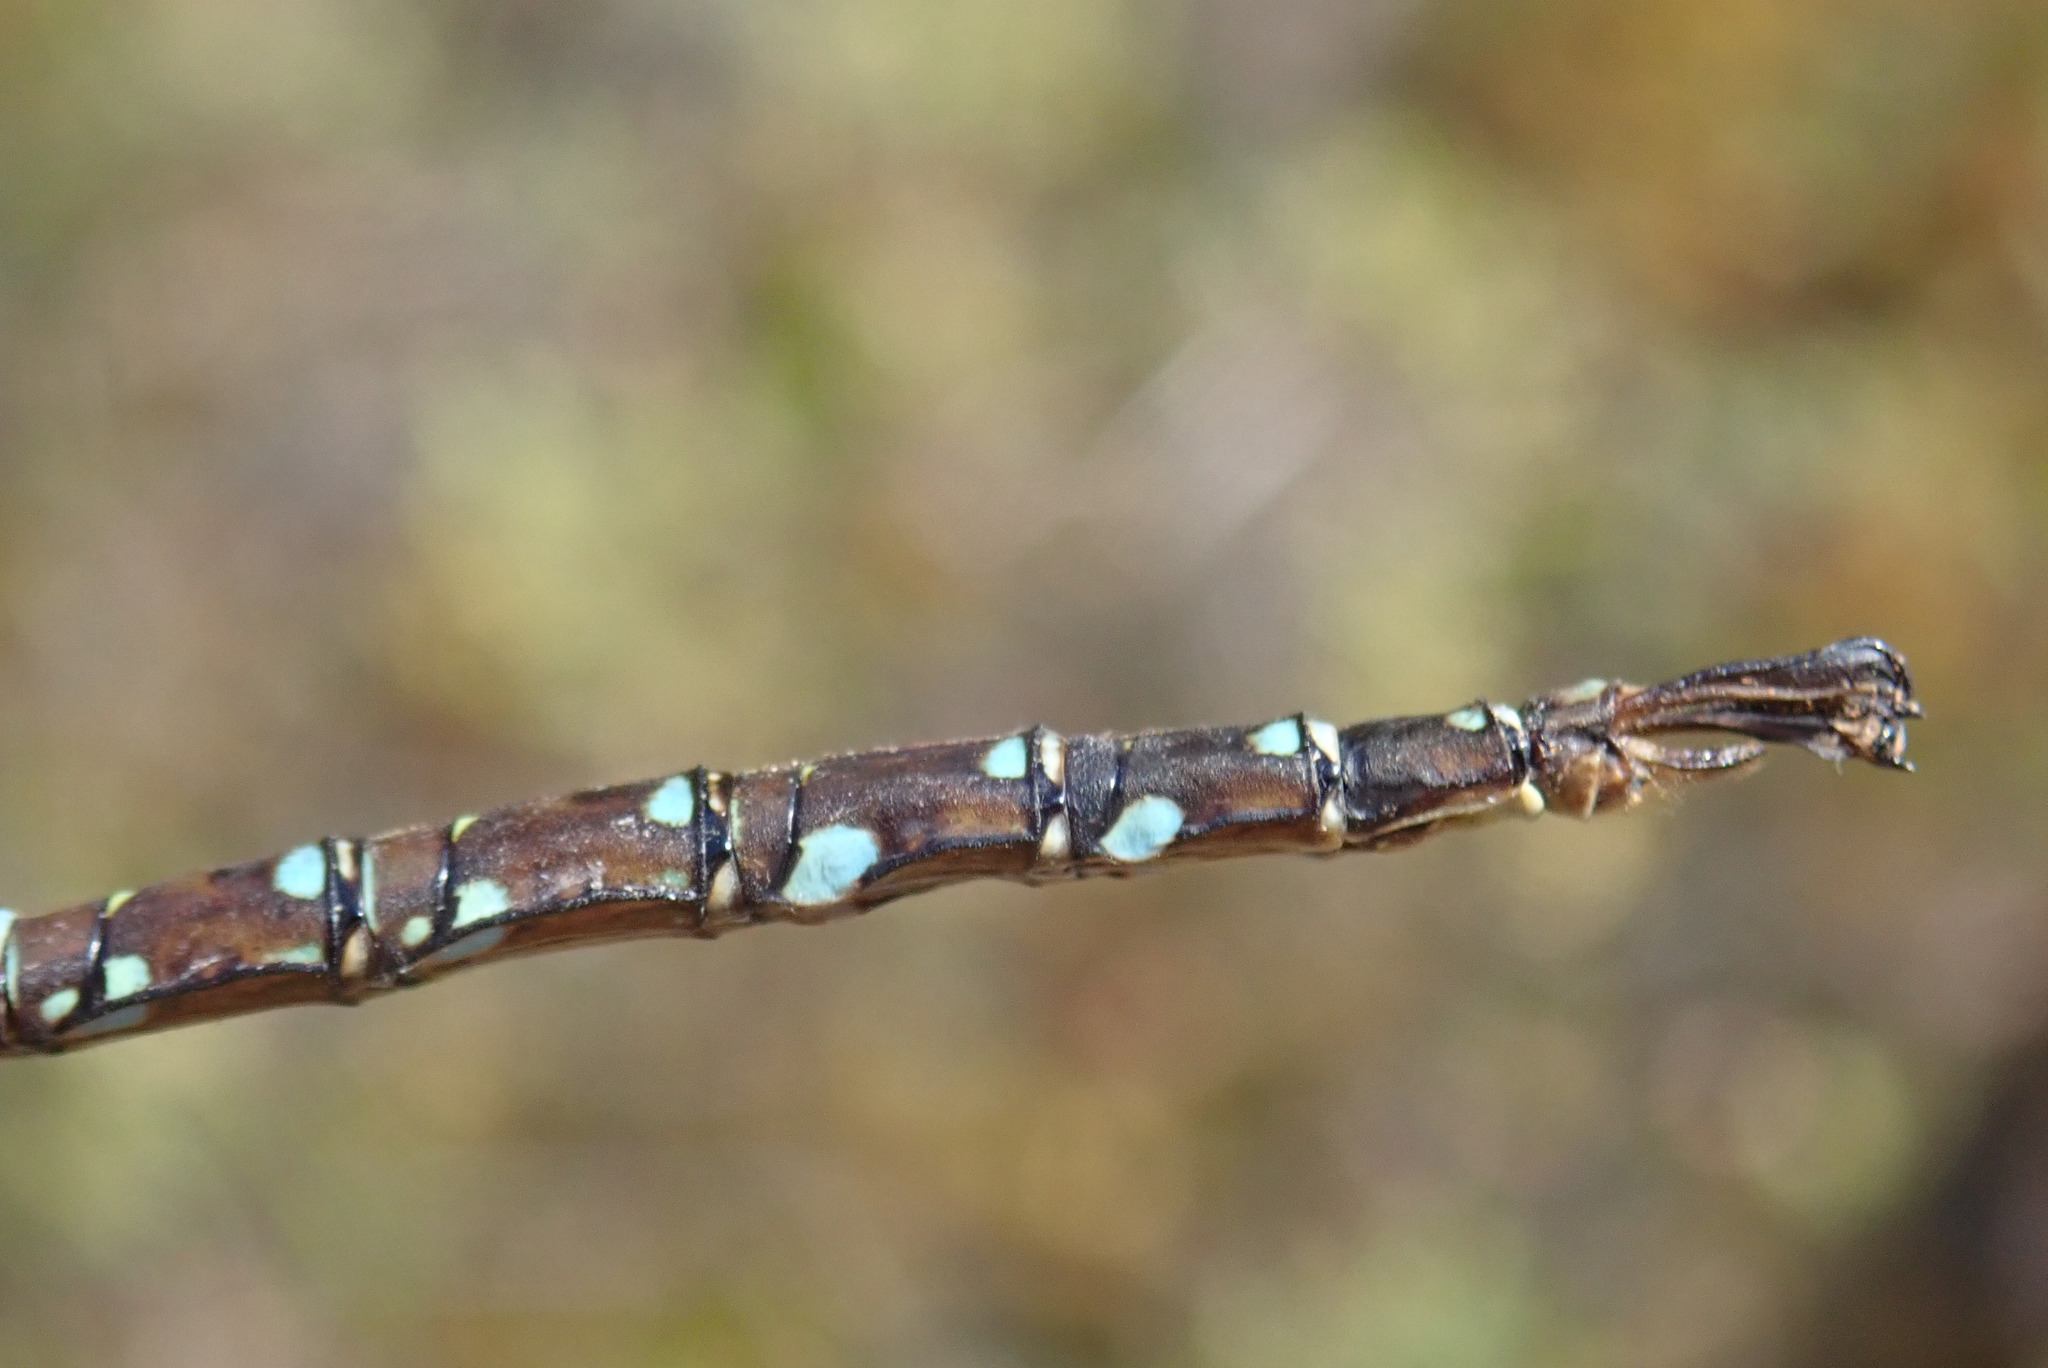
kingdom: Animalia
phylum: Arthropoda
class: Insecta
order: Odonata
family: Aeshnidae
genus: Aeshna
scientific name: Aeshna umbrosa
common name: Shadow darner
